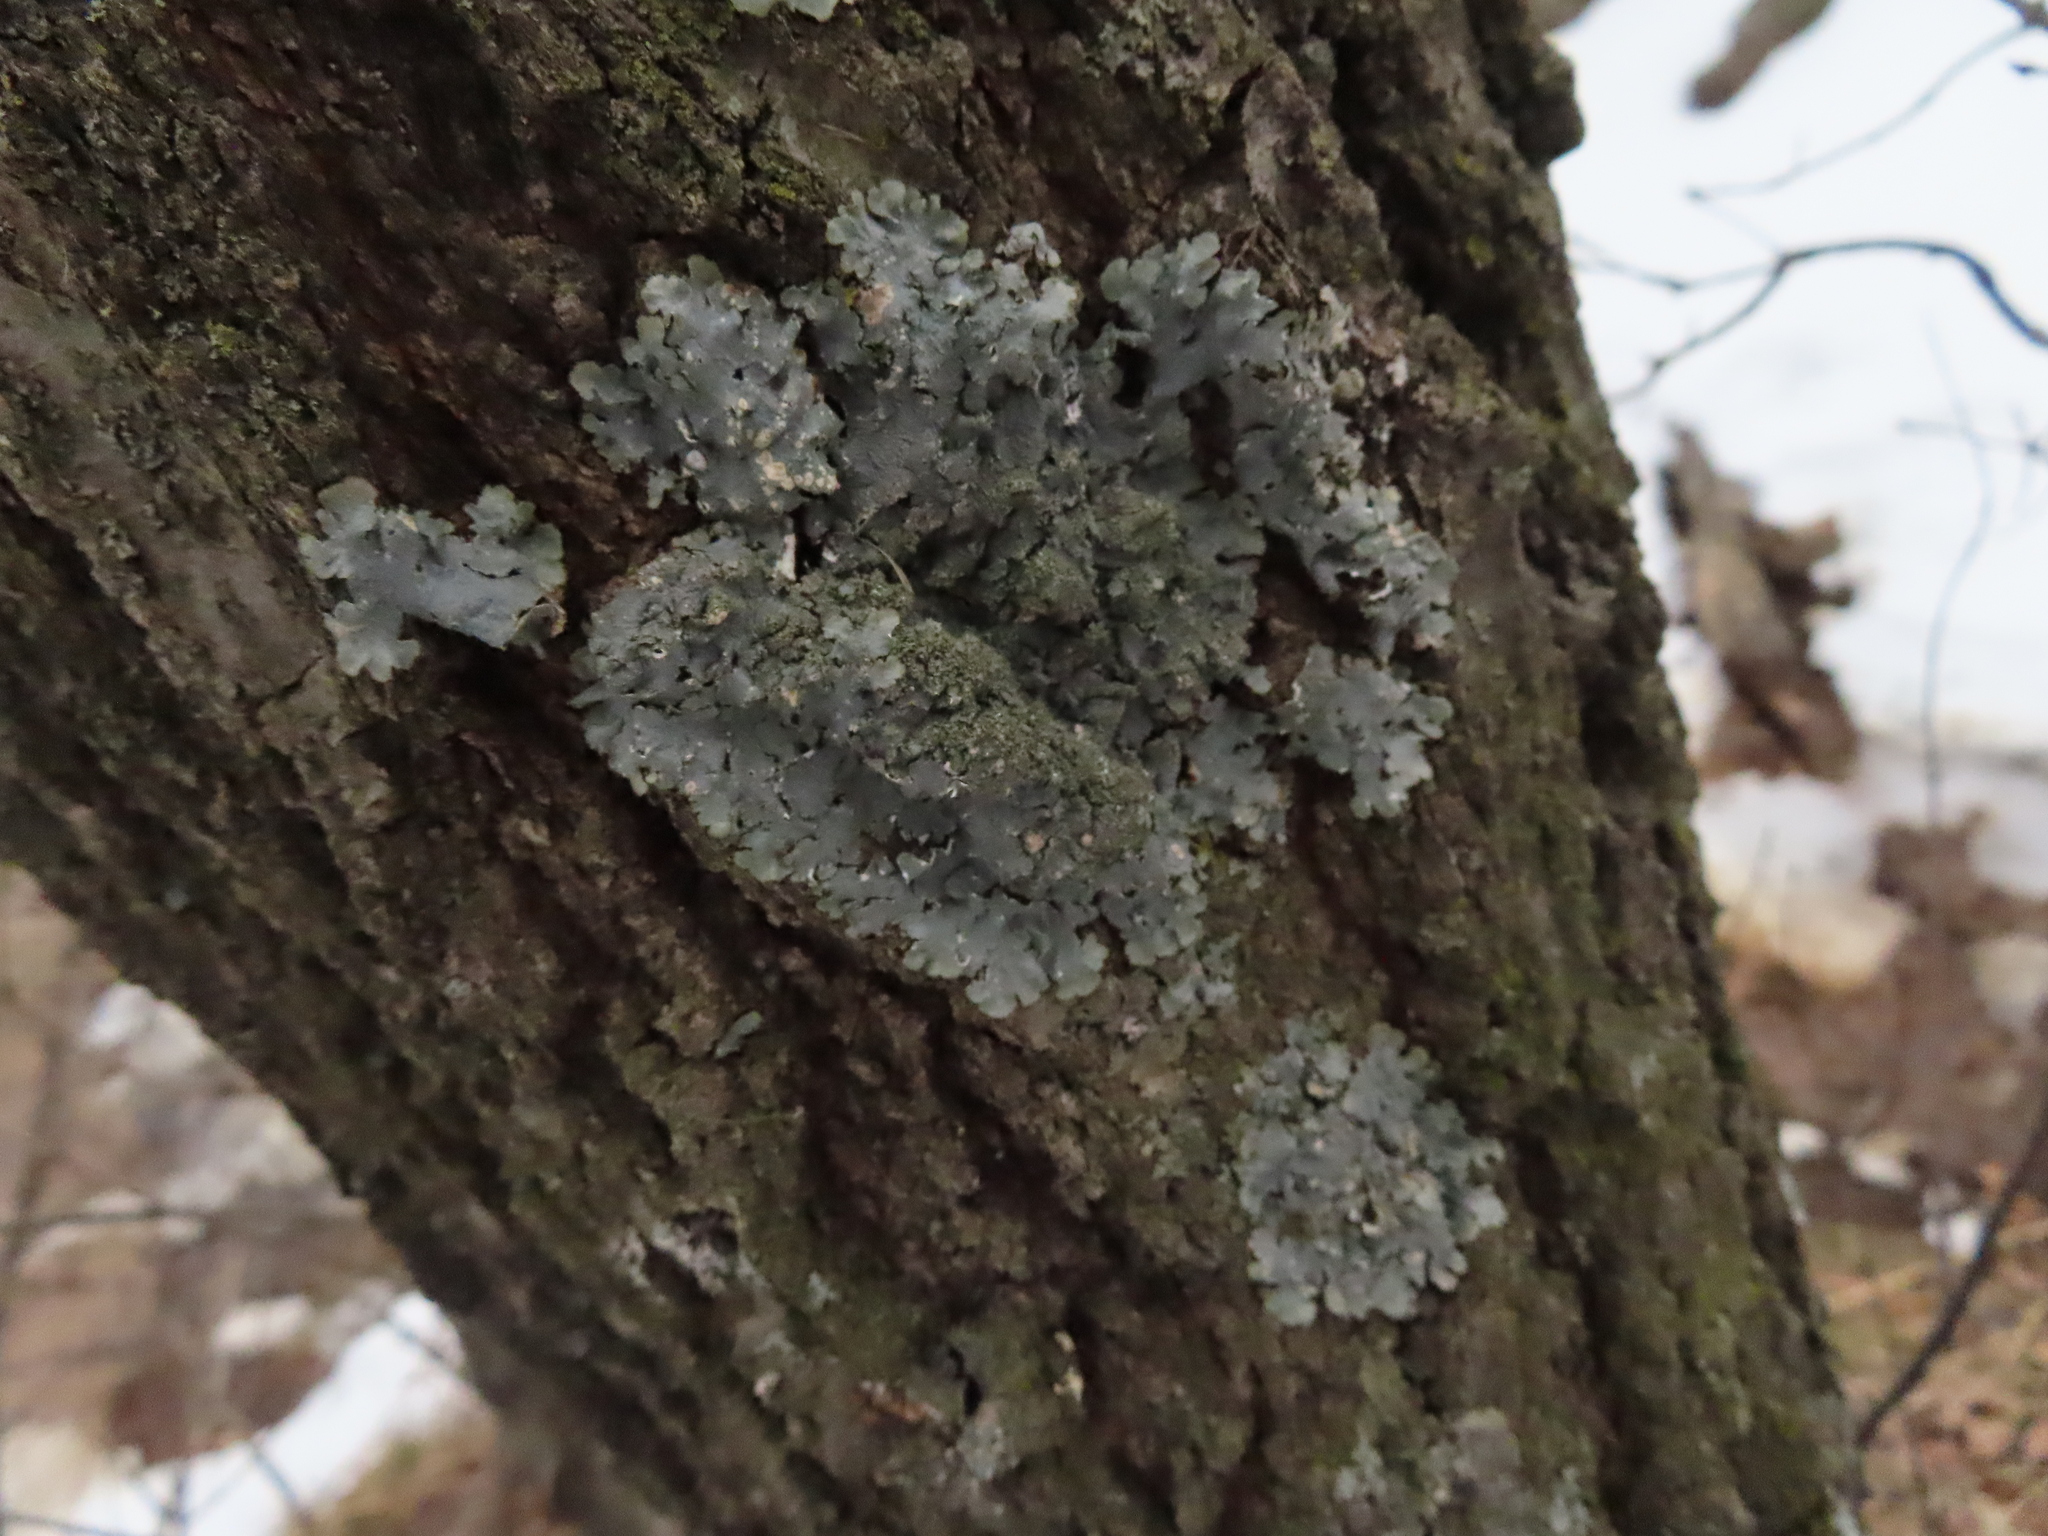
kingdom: Fungi
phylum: Ascomycota
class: Lecanoromycetes
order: Lecanorales
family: Parmeliaceae
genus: Punctelia
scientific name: Punctelia rudecta
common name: Rough speckled shield lichen
